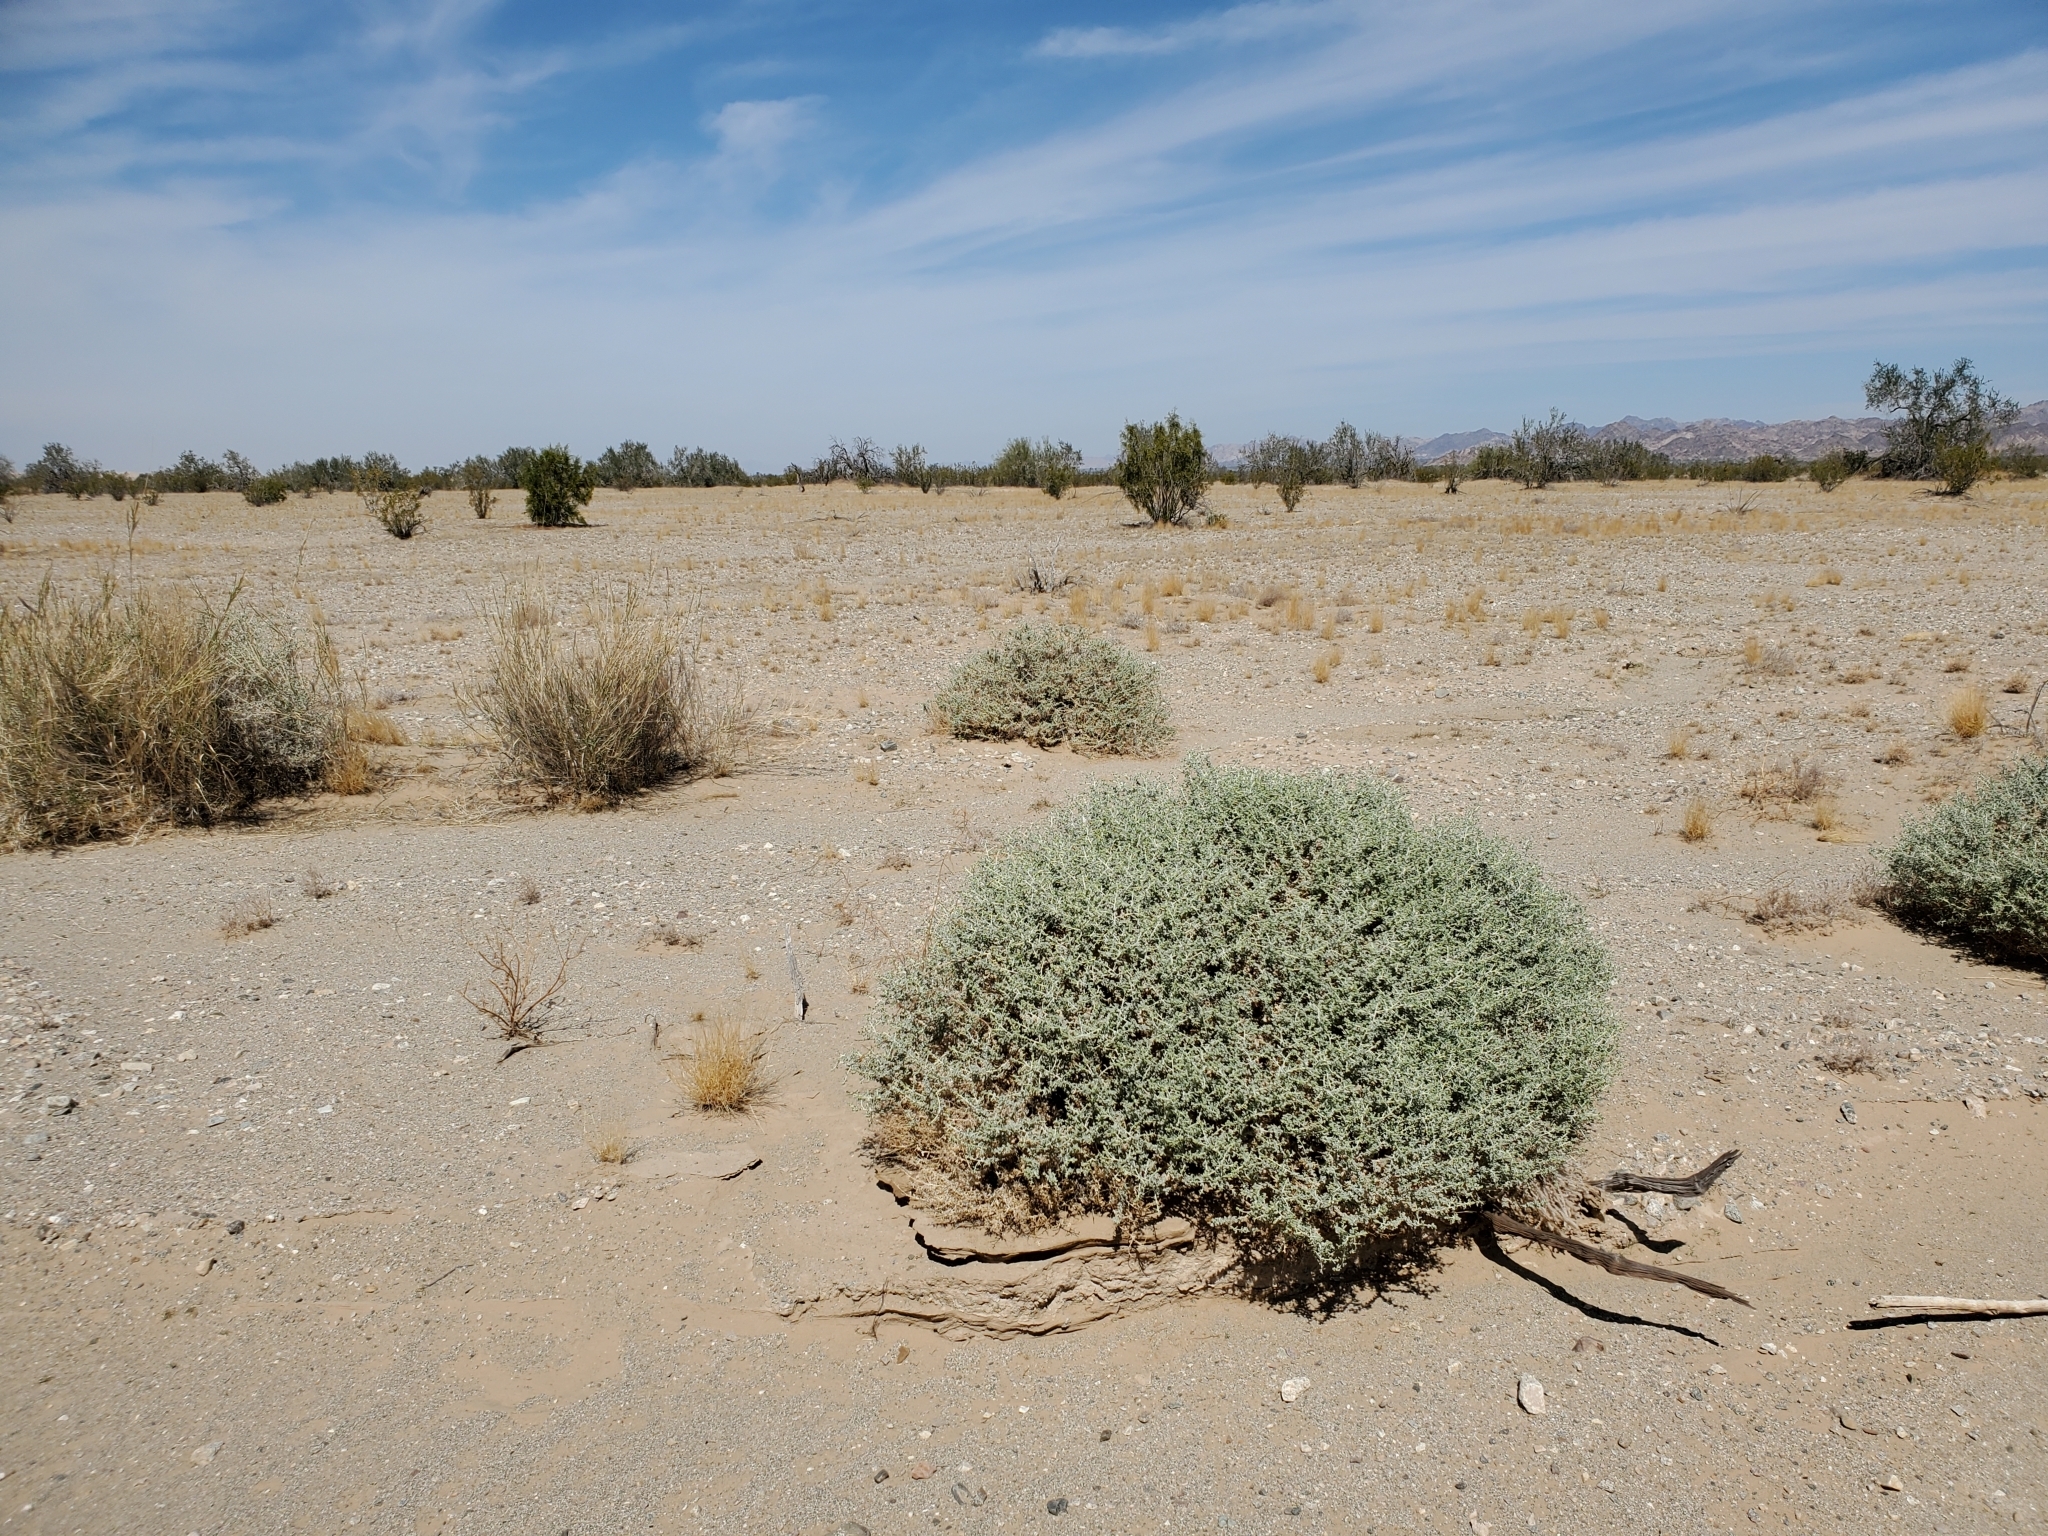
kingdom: Plantae
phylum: Tracheophyta
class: Magnoliopsida
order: Asterales
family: Asteraceae
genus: Ambrosia
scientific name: Ambrosia dumosa
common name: Bur-sage
